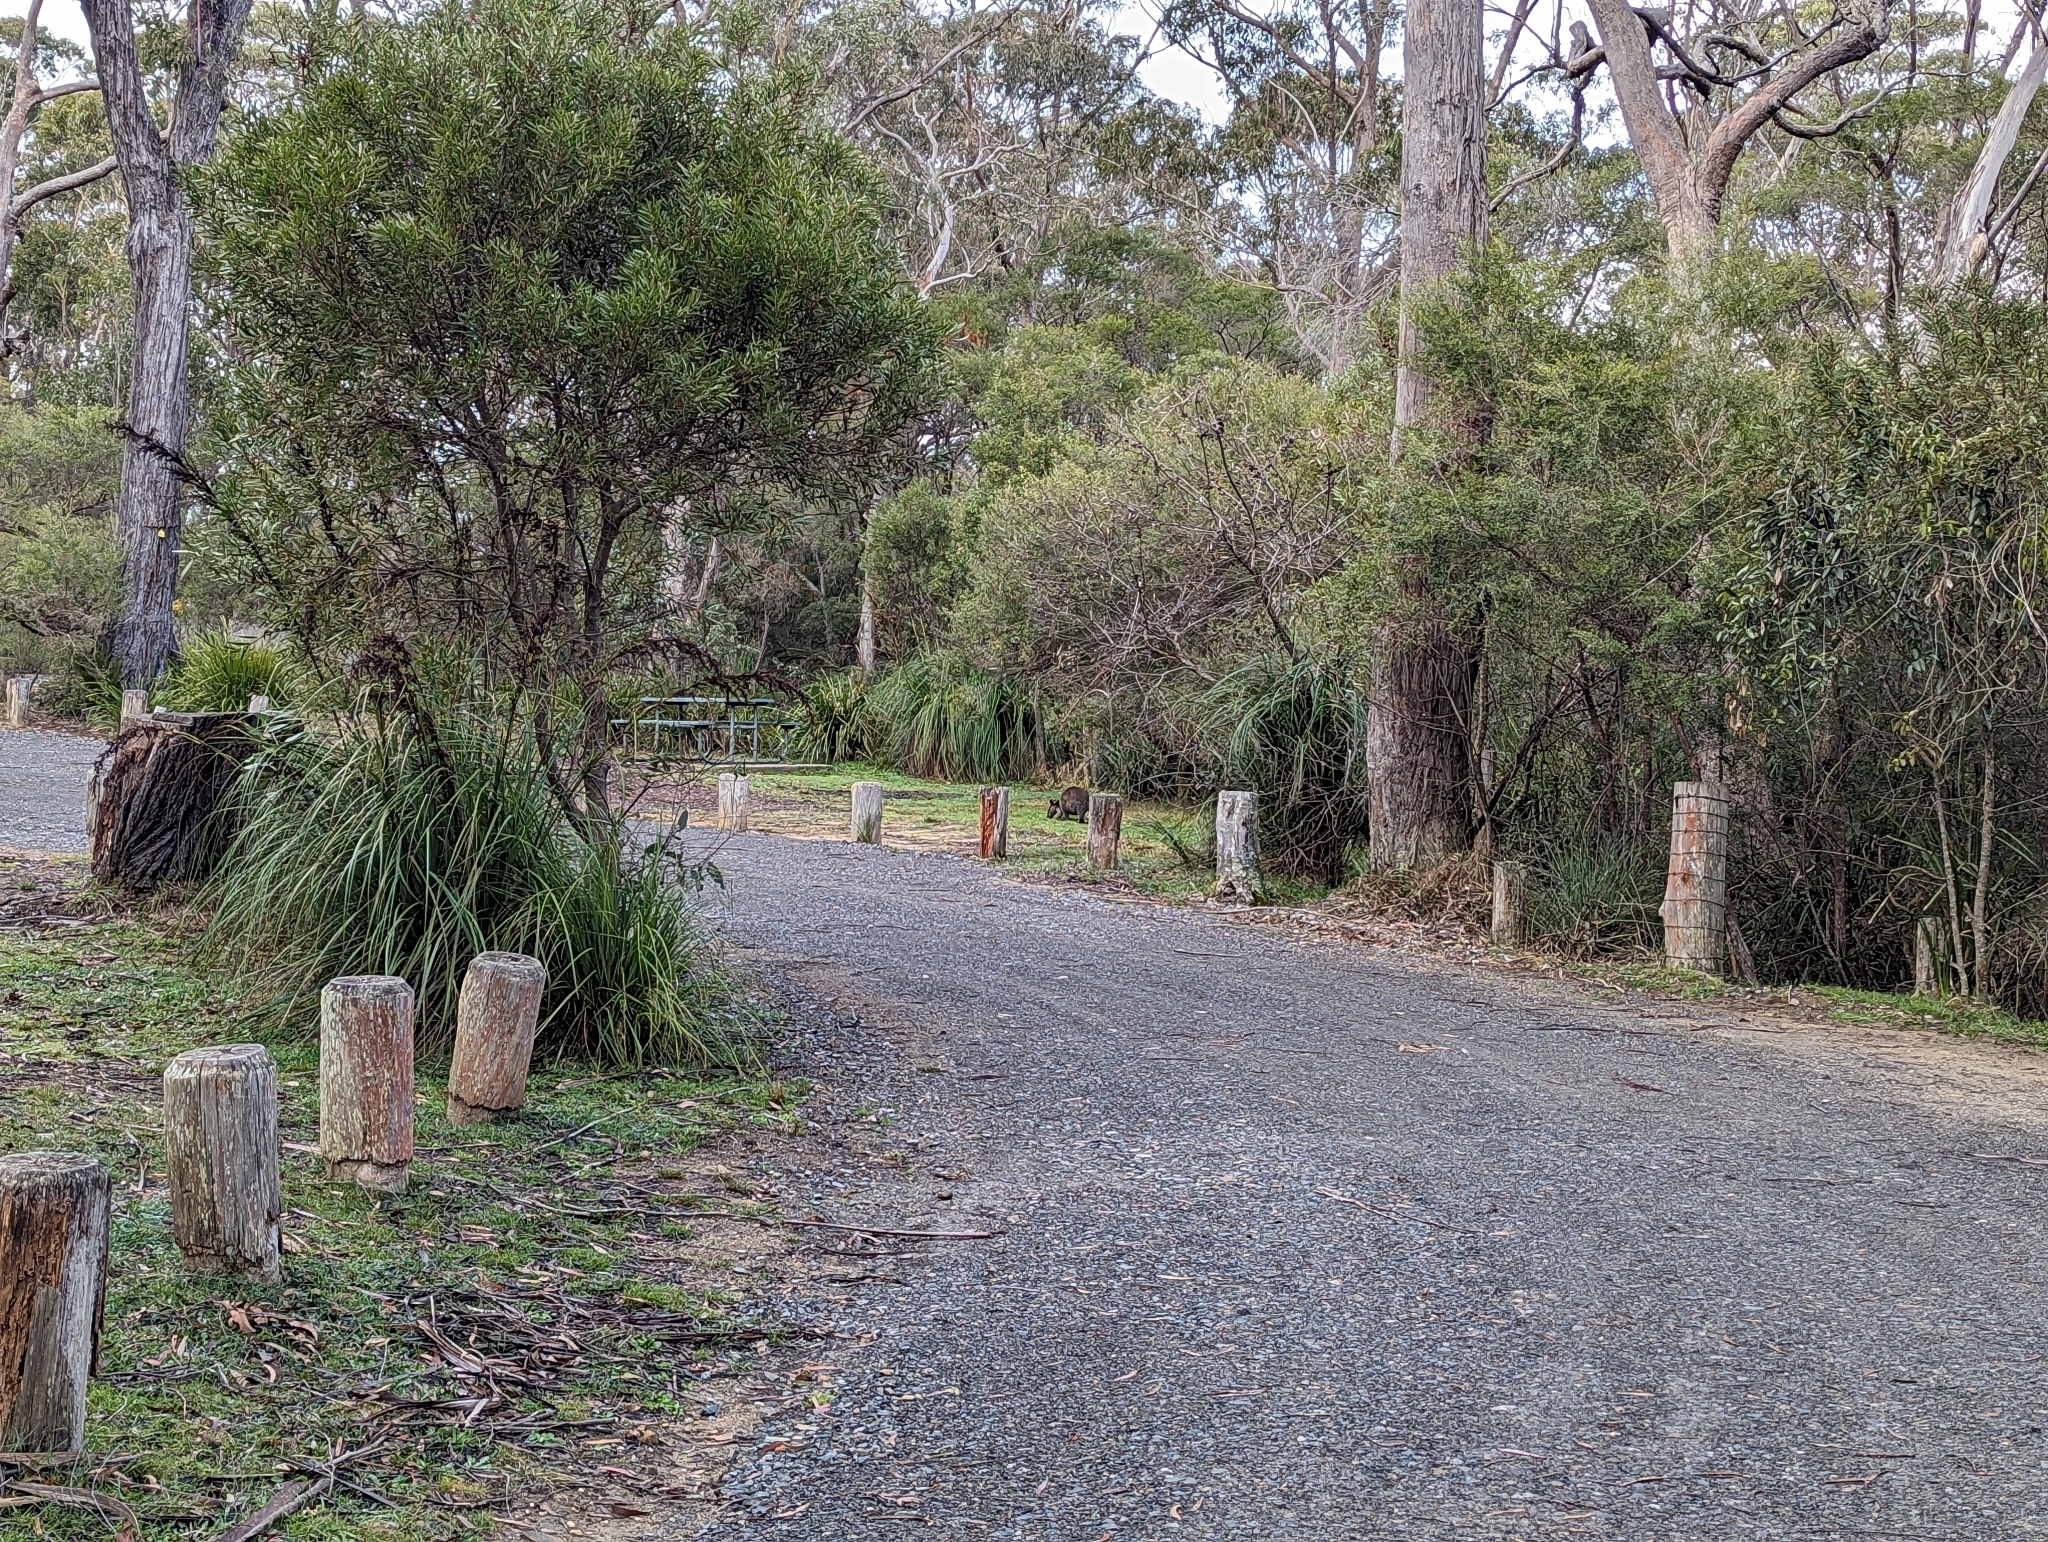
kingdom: Animalia
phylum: Chordata
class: Mammalia
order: Diprotodontia
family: Macropodidae
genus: Wallabia
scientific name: Wallabia bicolor
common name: Swamp wallaby
